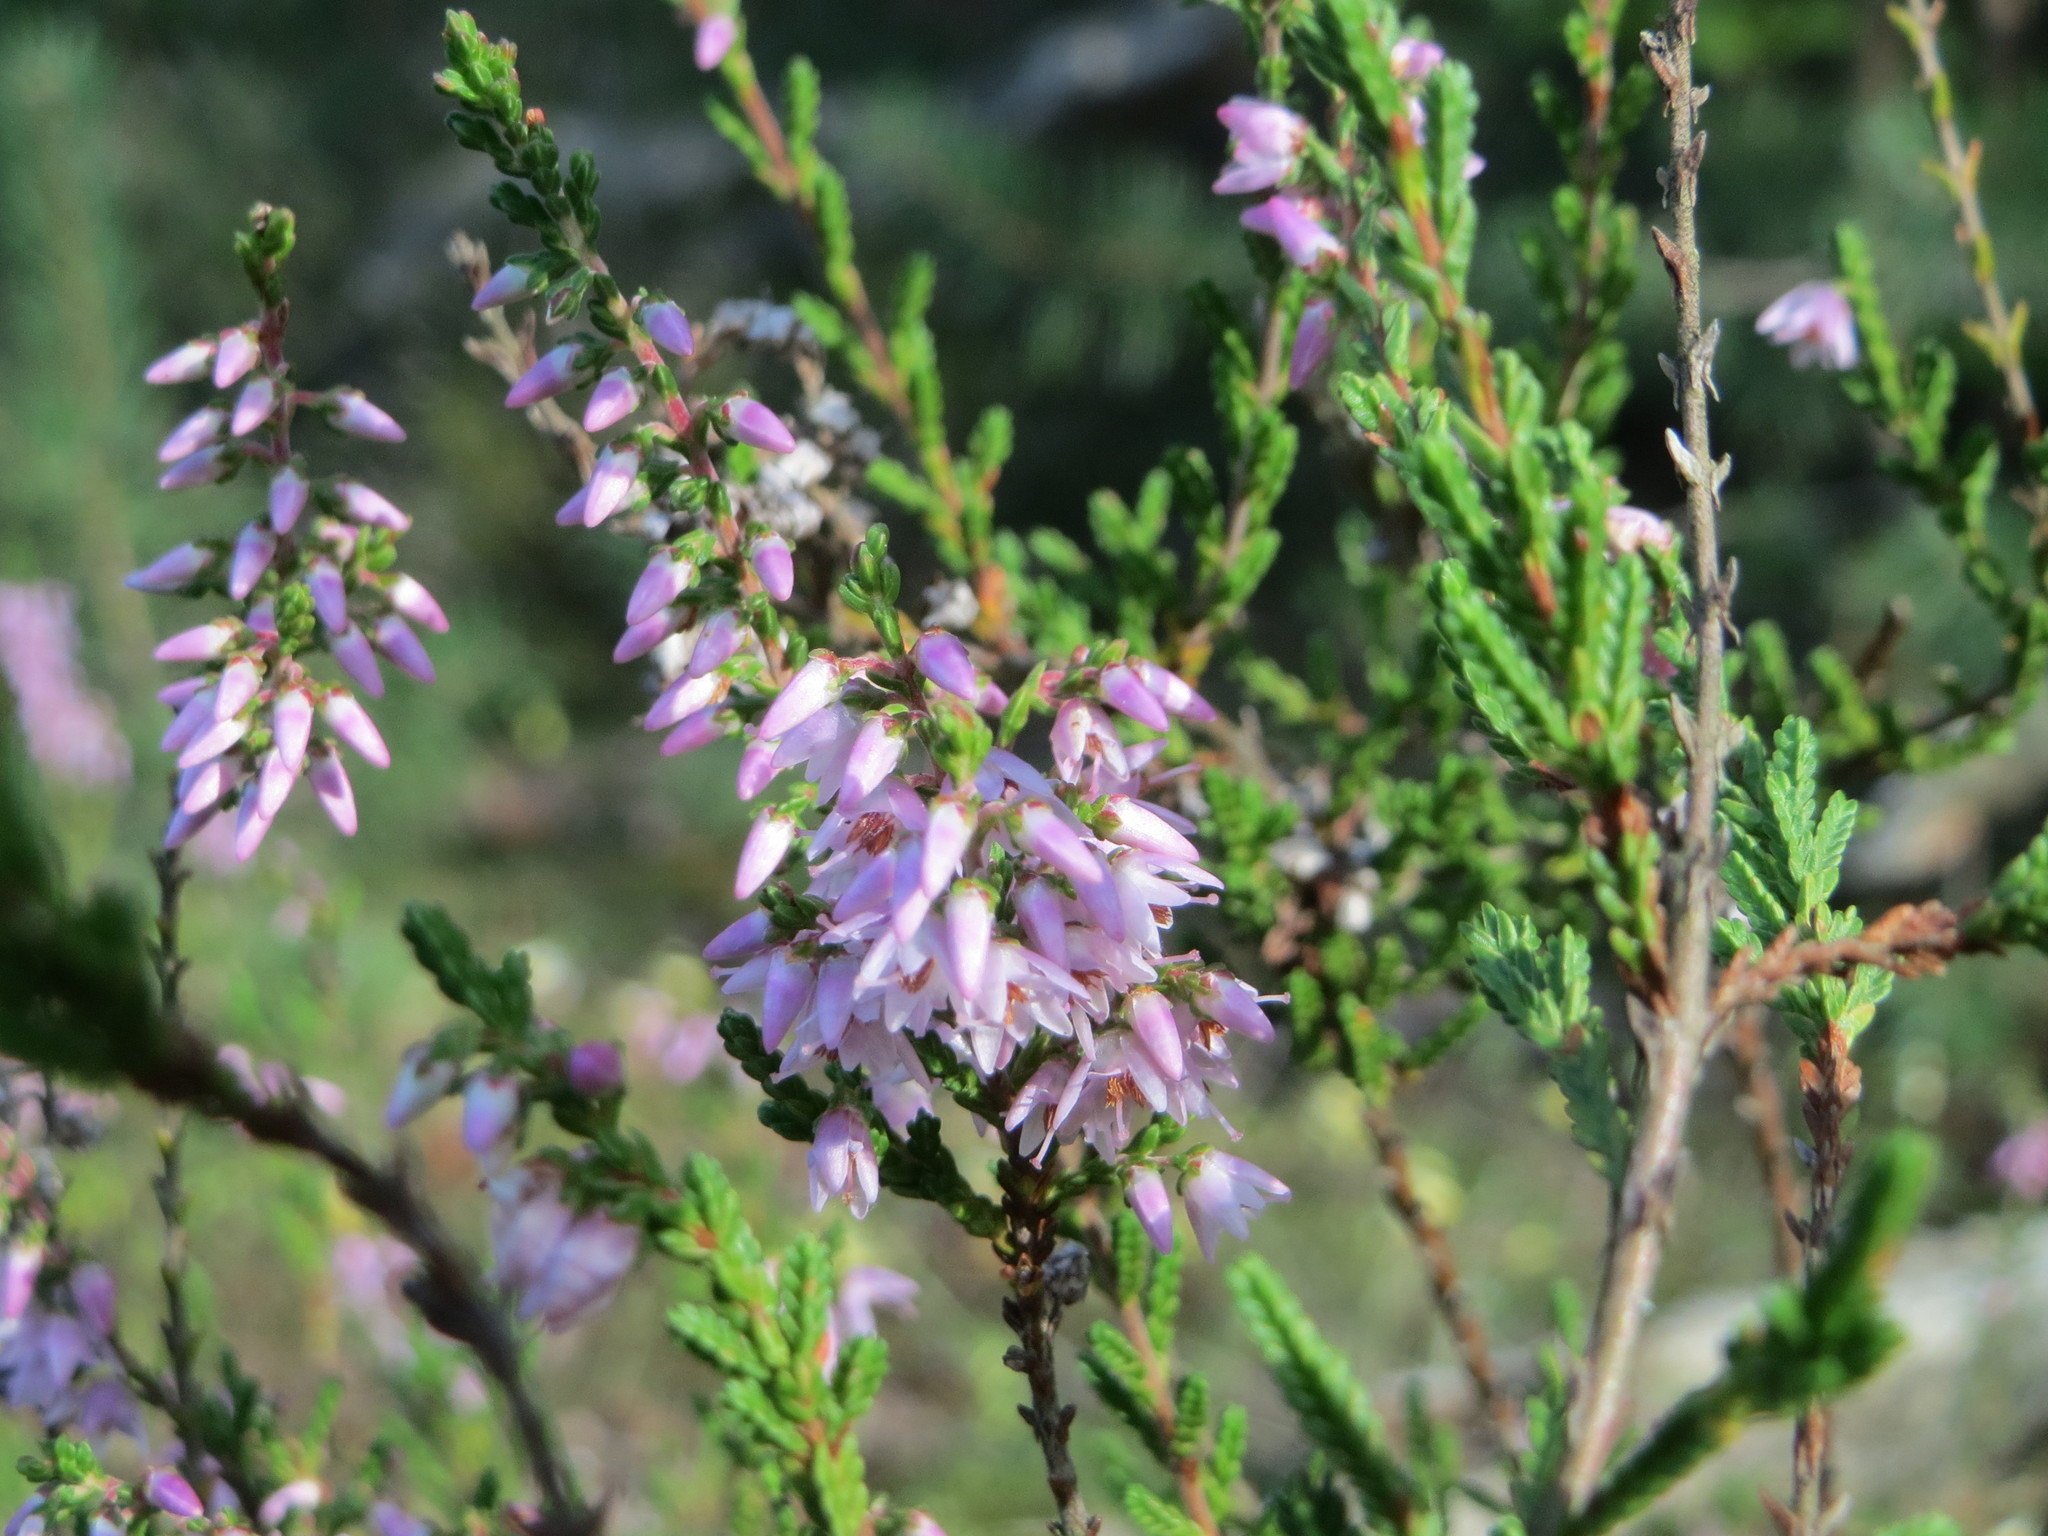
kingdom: Plantae
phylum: Tracheophyta
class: Magnoliopsida
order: Ericales
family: Ericaceae
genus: Calluna
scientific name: Calluna vulgaris
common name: Heather
